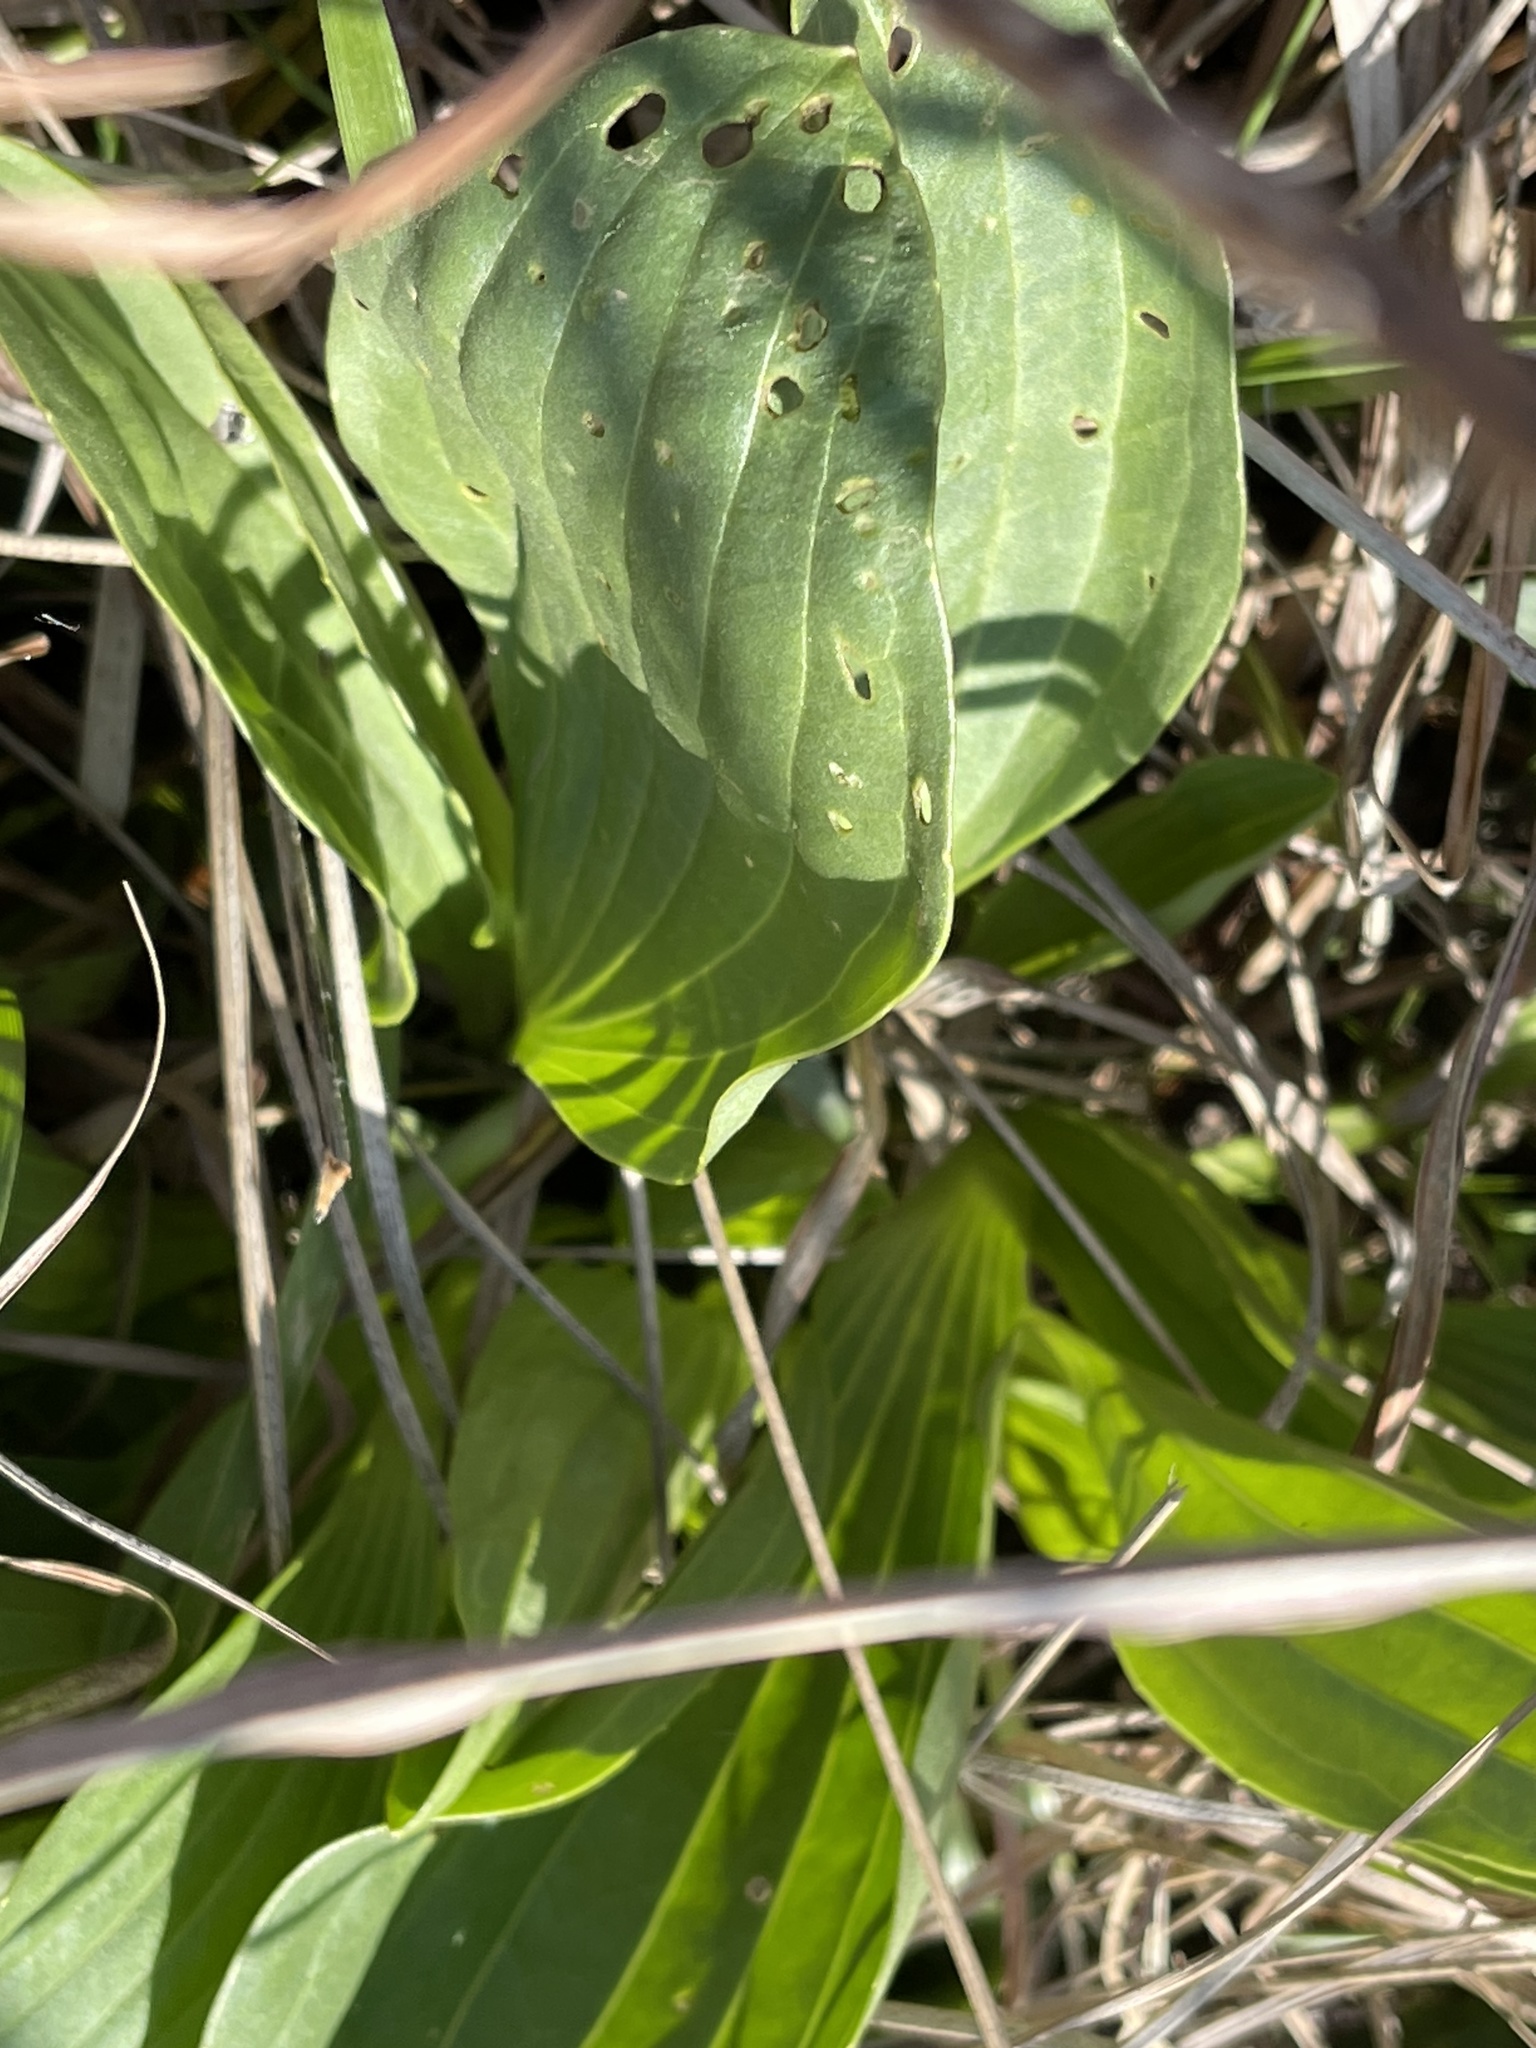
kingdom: Plantae
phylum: Tracheophyta
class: Magnoliopsida
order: Asterales
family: Asteraceae
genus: Arnoglossum
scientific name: Arnoglossum plantagineum
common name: Groove-stemmed indian-plantain
